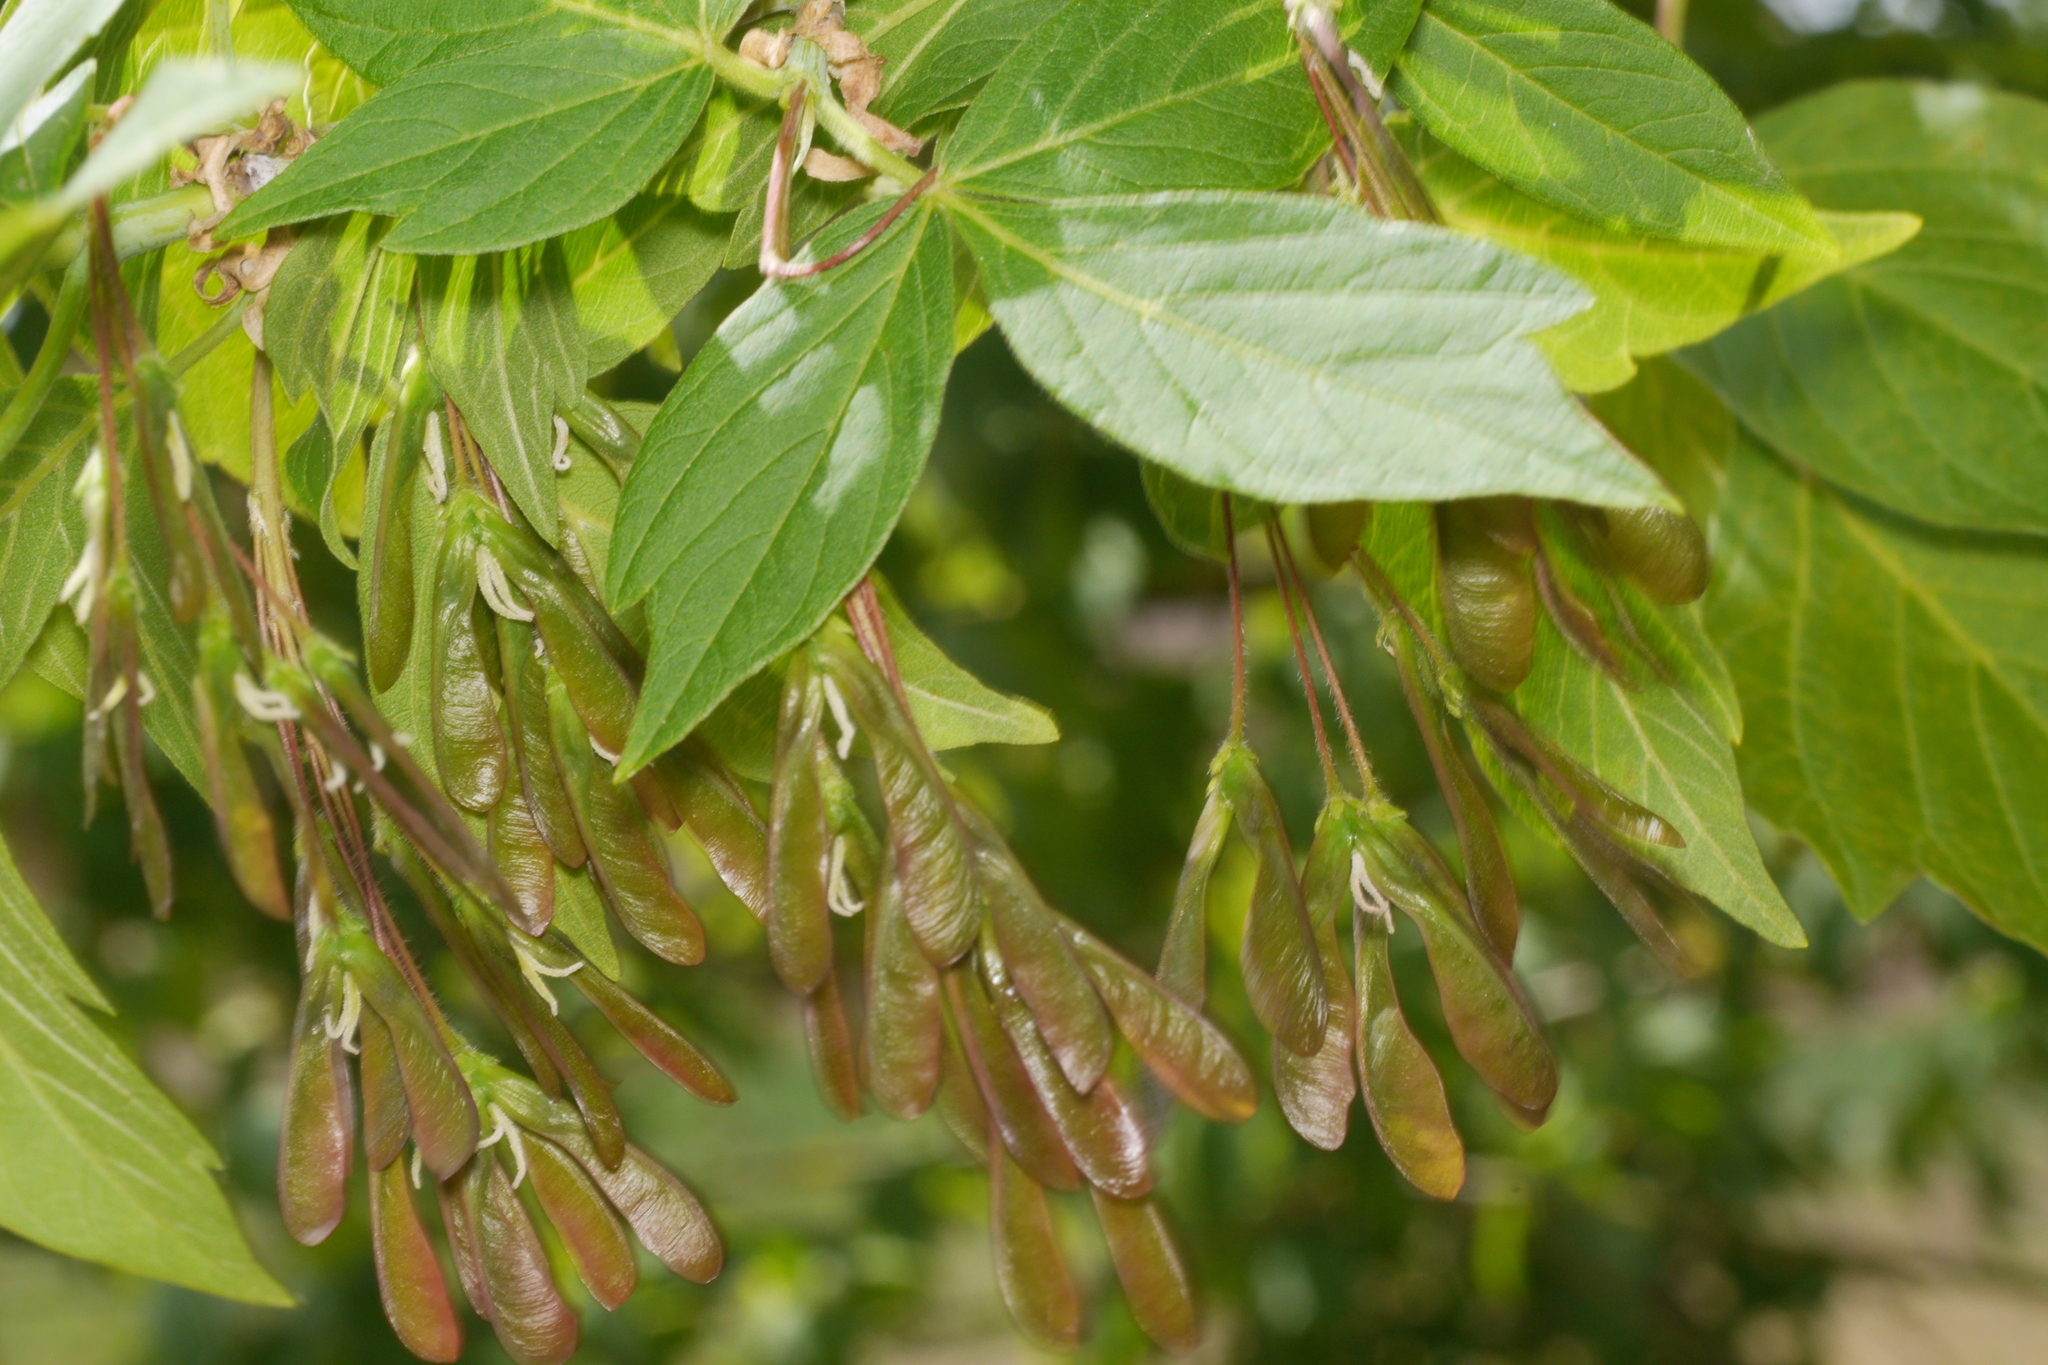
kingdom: Plantae
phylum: Tracheophyta
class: Magnoliopsida
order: Sapindales
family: Sapindaceae
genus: Acer
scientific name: Acer negundo
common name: Ashleaf maple
